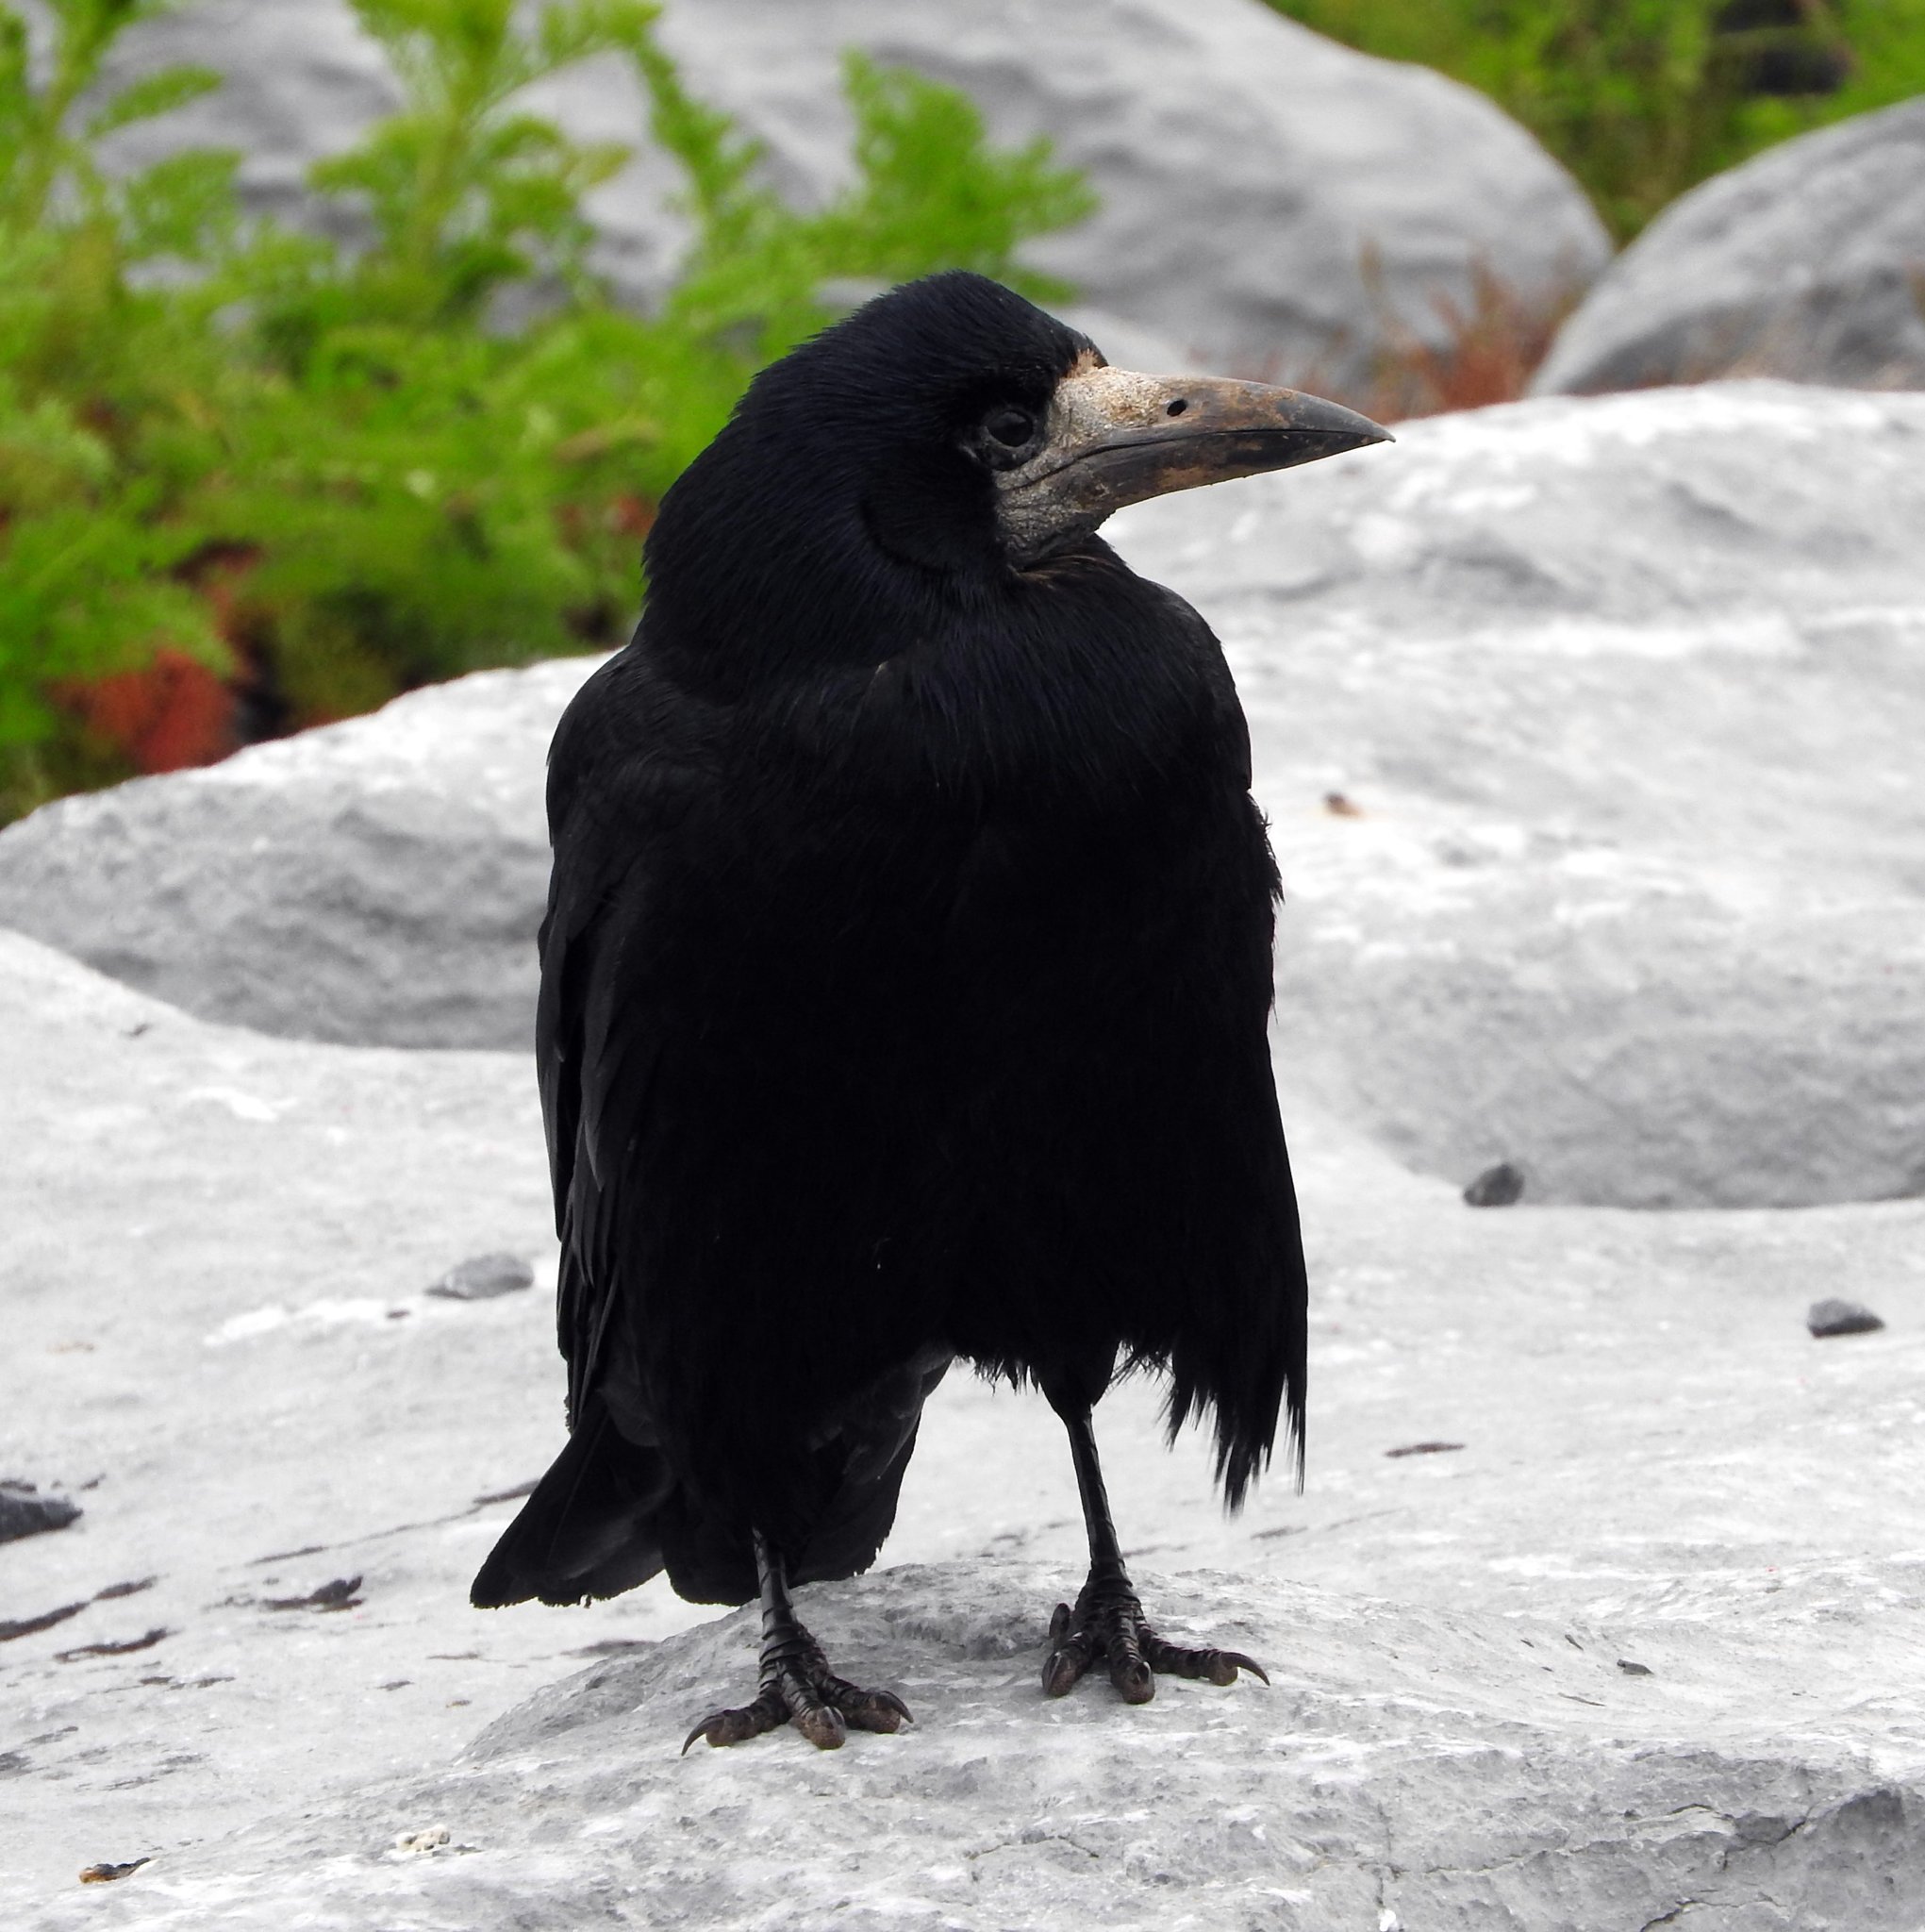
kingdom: Animalia
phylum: Chordata
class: Aves
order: Passeriformes
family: Corvidae
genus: Corvus
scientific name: Corvus frugilegus
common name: Rook
